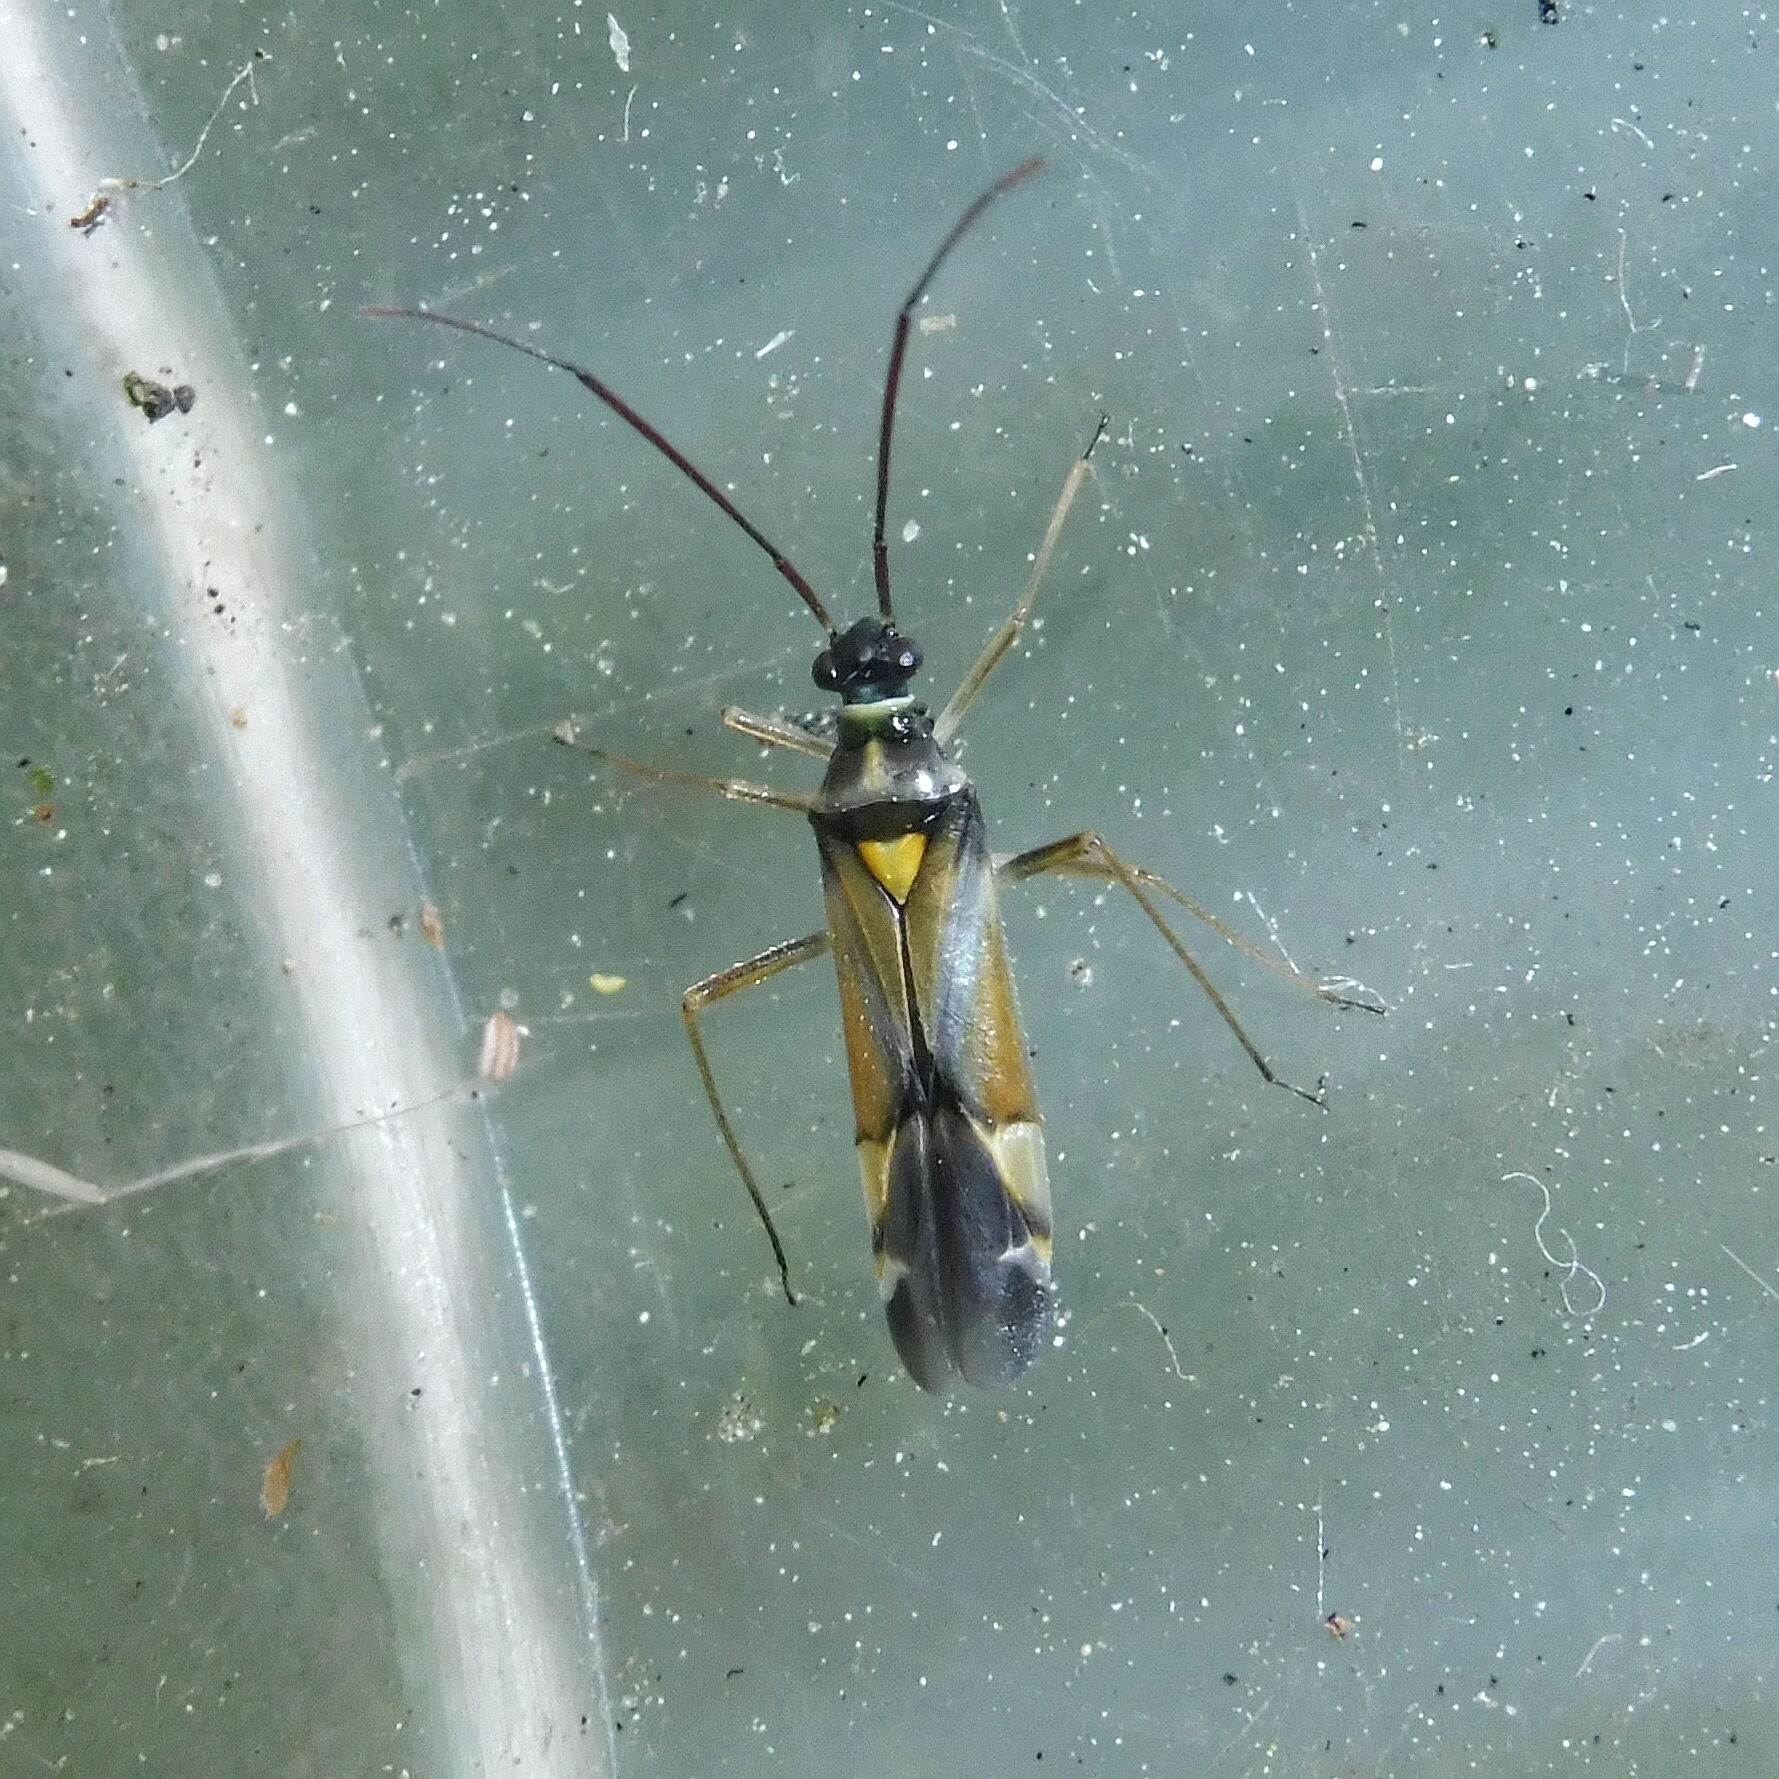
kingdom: Animalia
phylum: Arthropoda
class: Insecta
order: Hemiptera
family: Miridae
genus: Cyllecoris
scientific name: Cyllecoris histrionius
